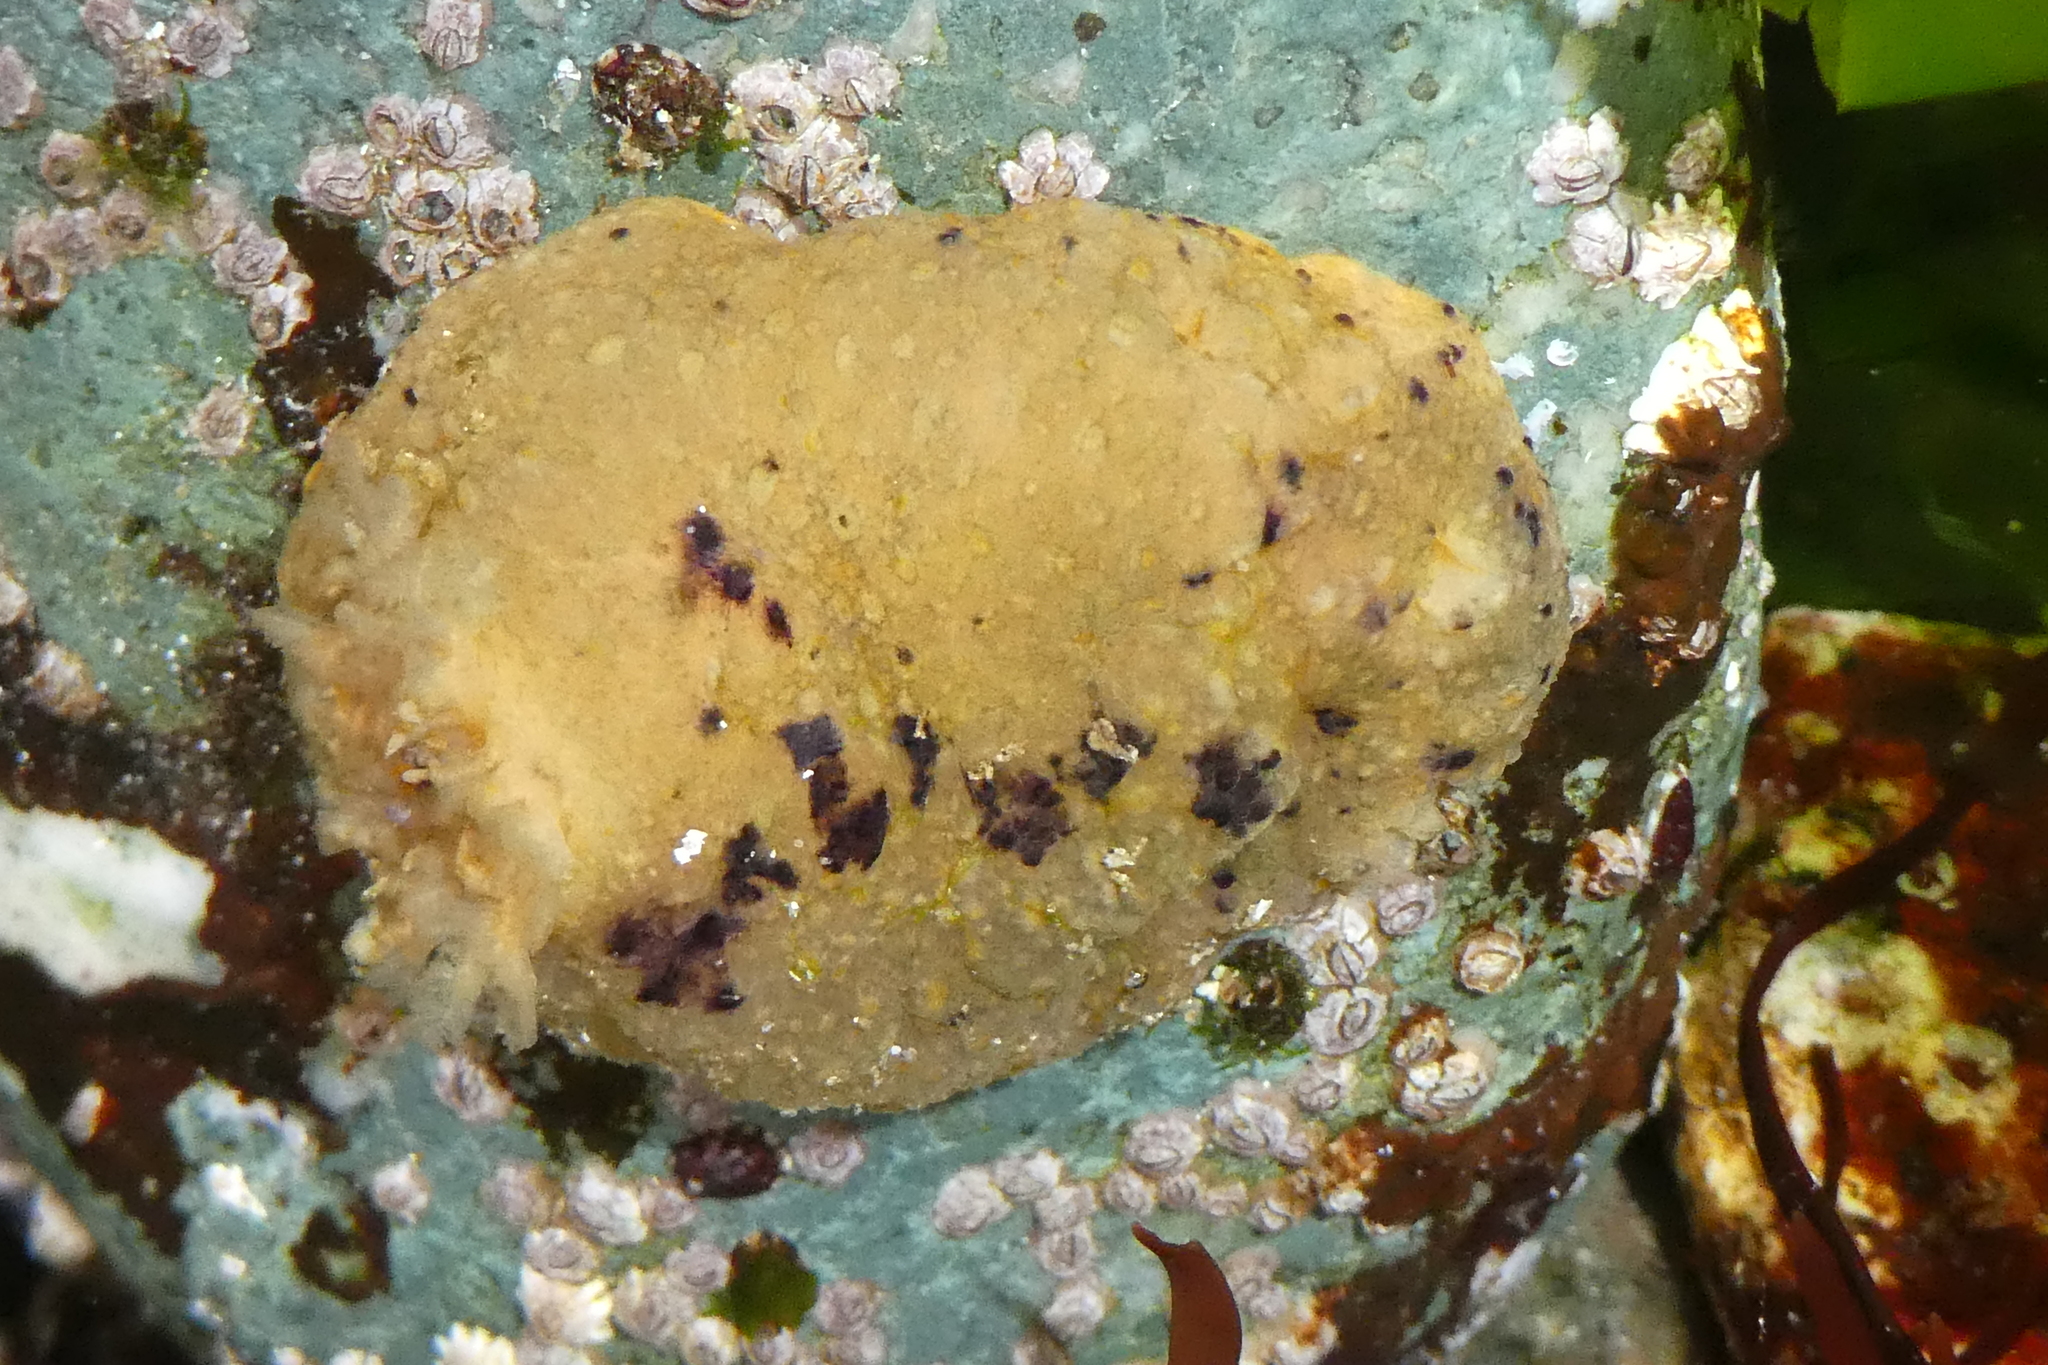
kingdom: Animalia
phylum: Mollusca
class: Gastropoda
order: Nudibranchia
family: Dorididae
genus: Doris
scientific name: Doris montereyensis
